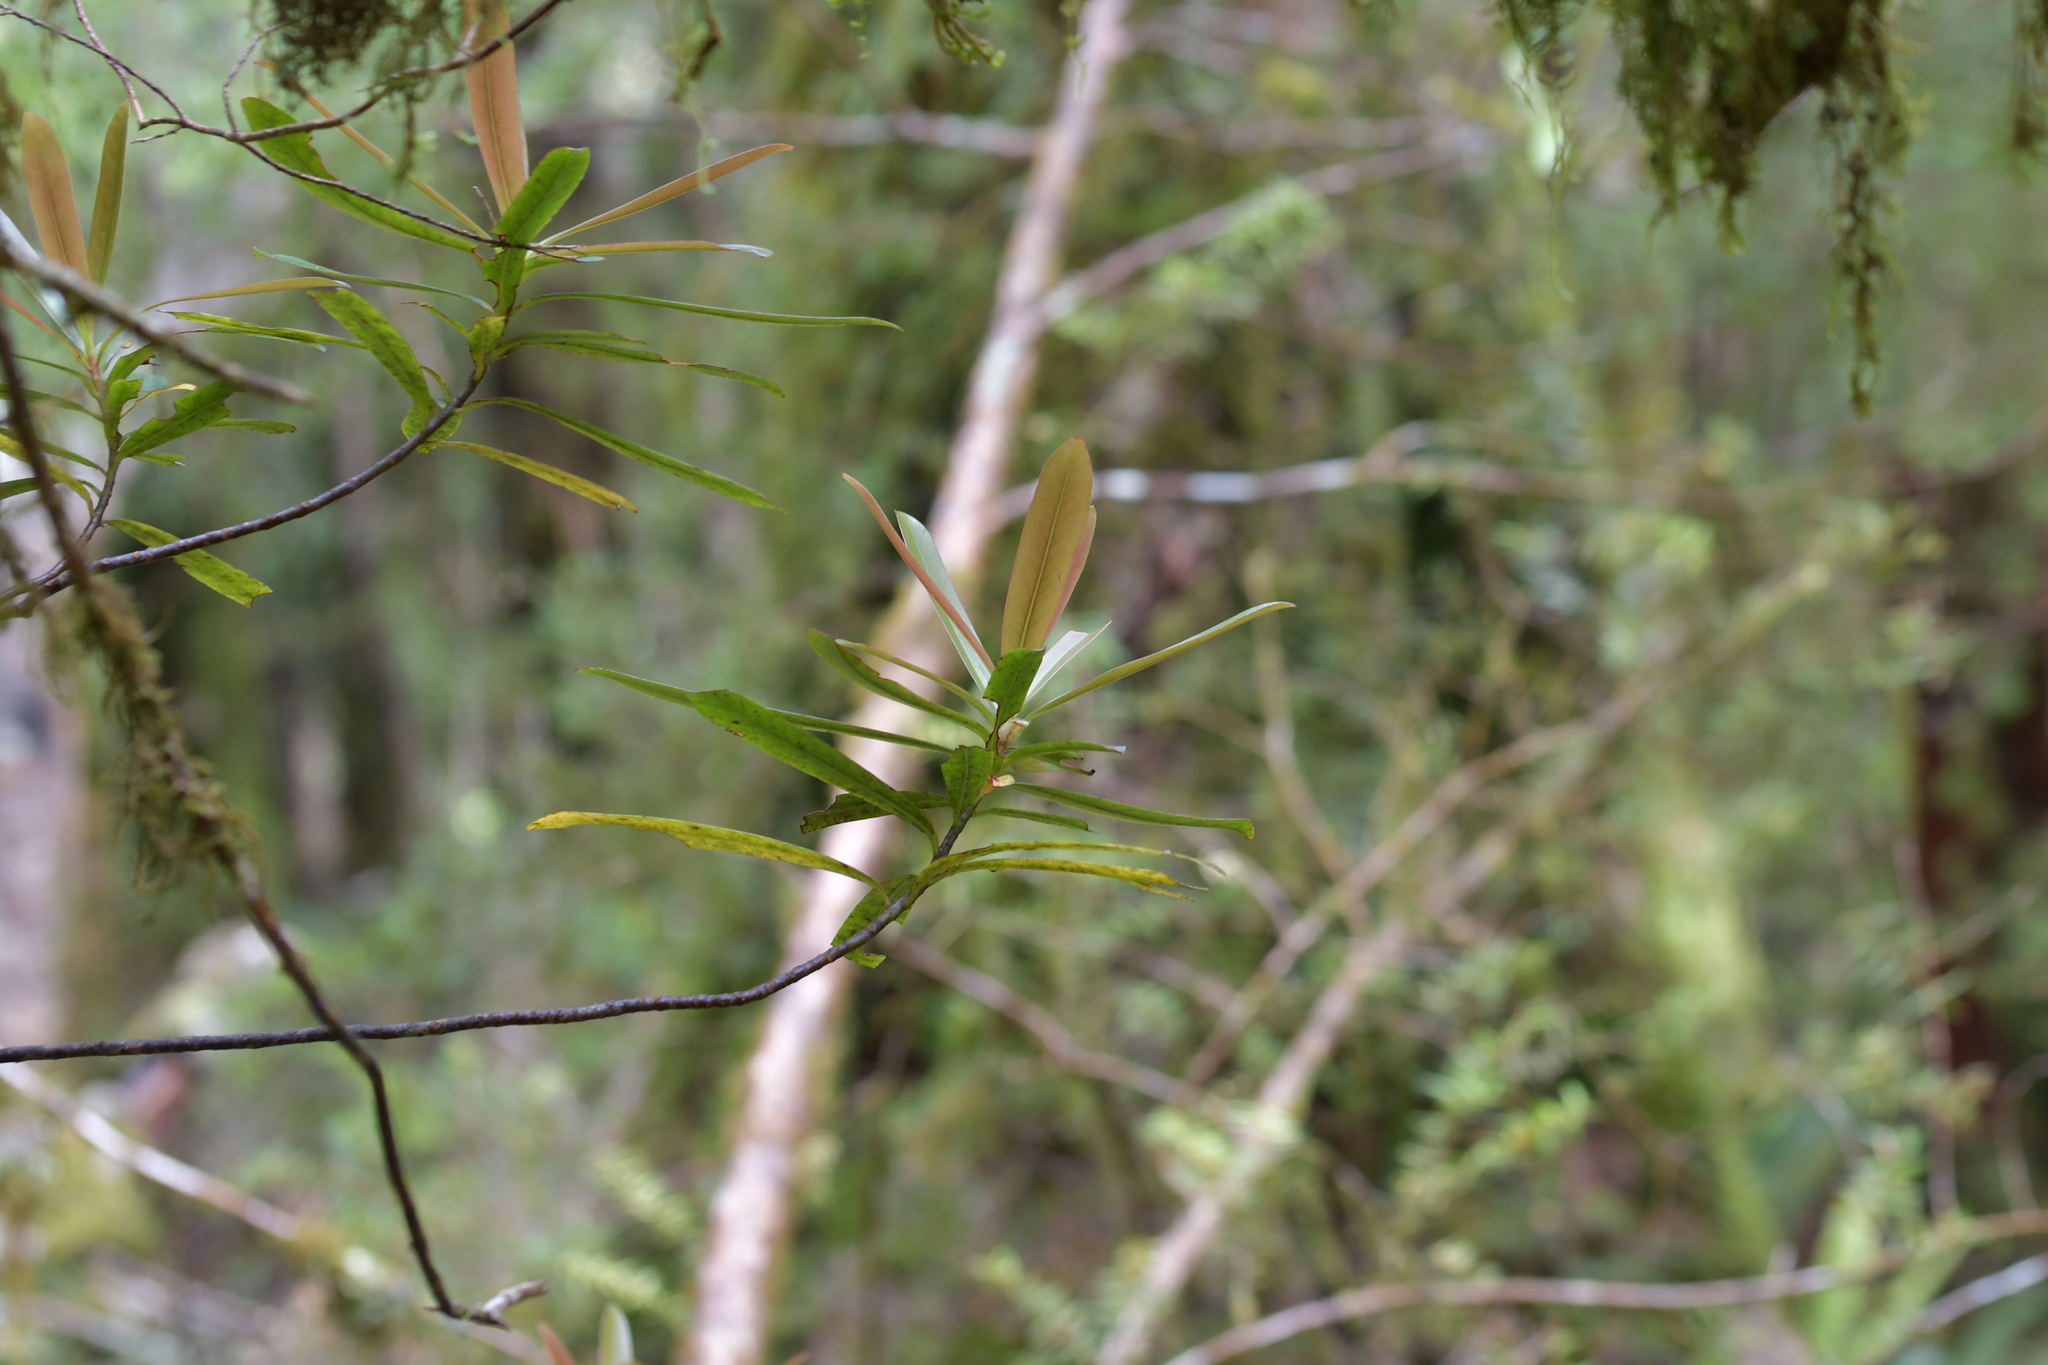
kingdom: Plantae
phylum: Tracheophyta
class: Magnoliopsida
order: Ericales
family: Primulaceae
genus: Myrsine
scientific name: Myrsine salicina
